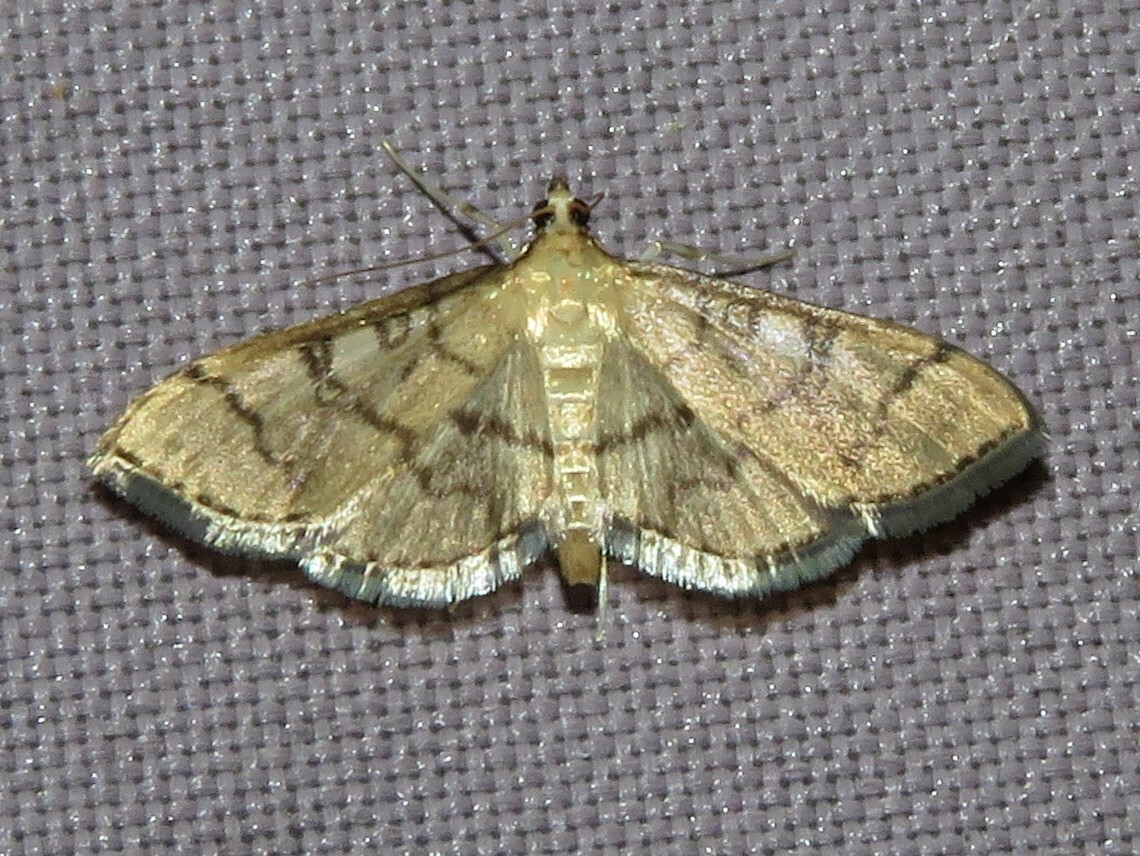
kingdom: Animalia
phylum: Arthropoda
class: Insecta
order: Lepidoptera
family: Crambidae
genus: Lamprosema
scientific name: Lamprosema Blepharomastix ranalis
